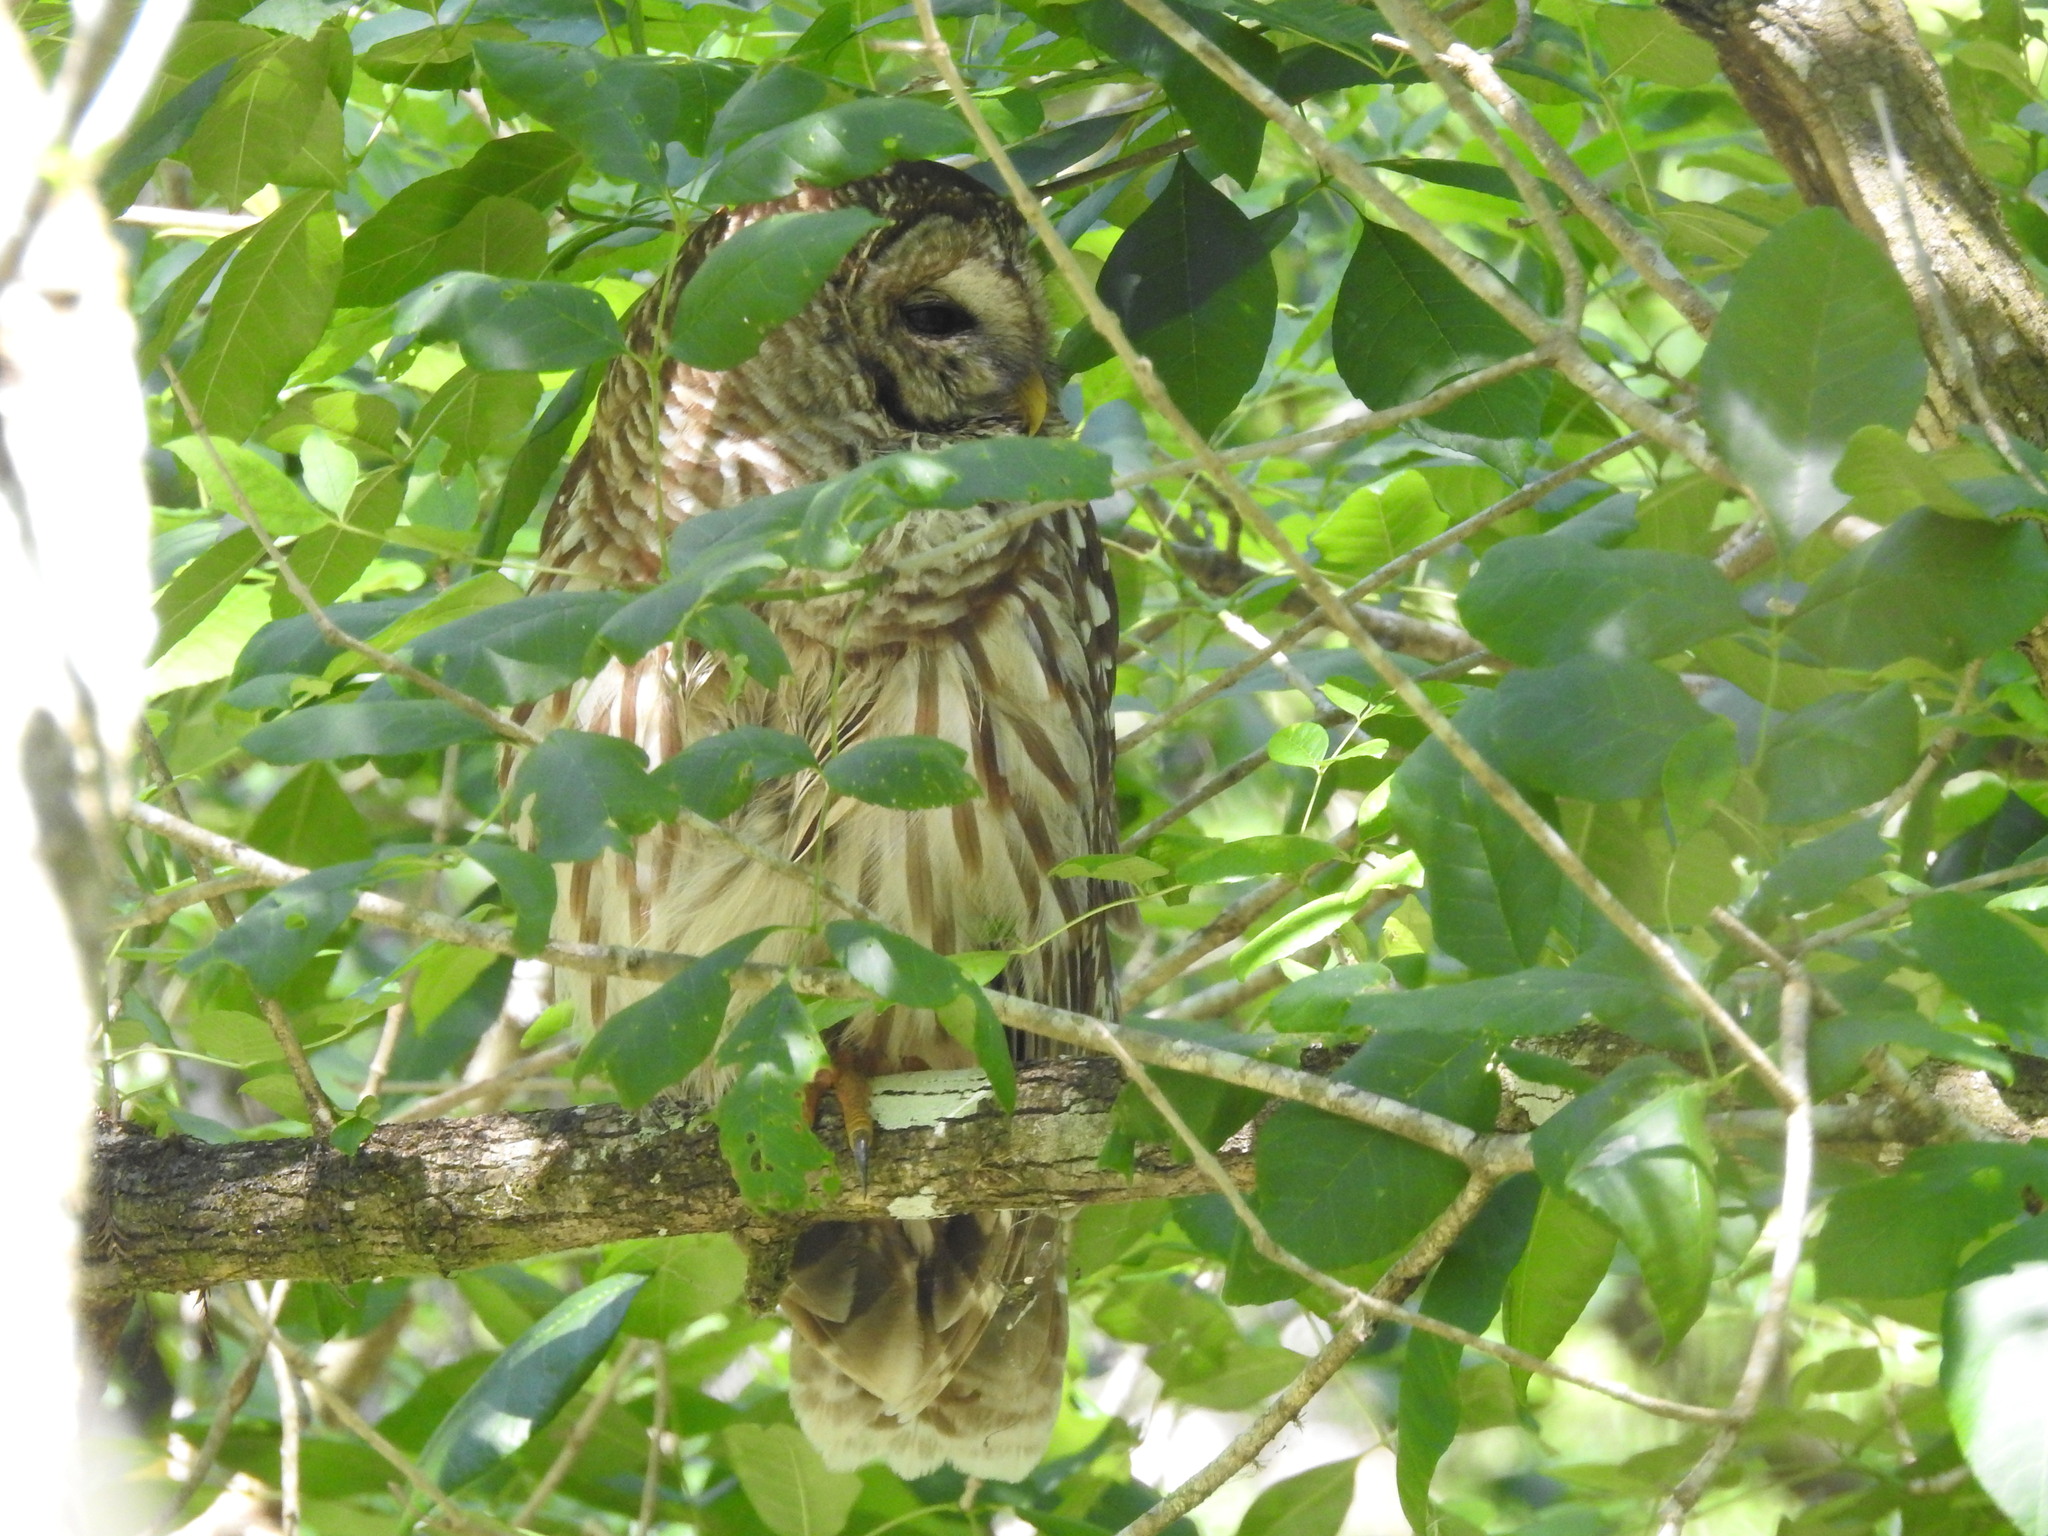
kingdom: Animalia
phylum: Chordata
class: Aves
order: Strigiformes
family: Strigidae
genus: Strix
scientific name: Strix varia
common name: Barred owl
